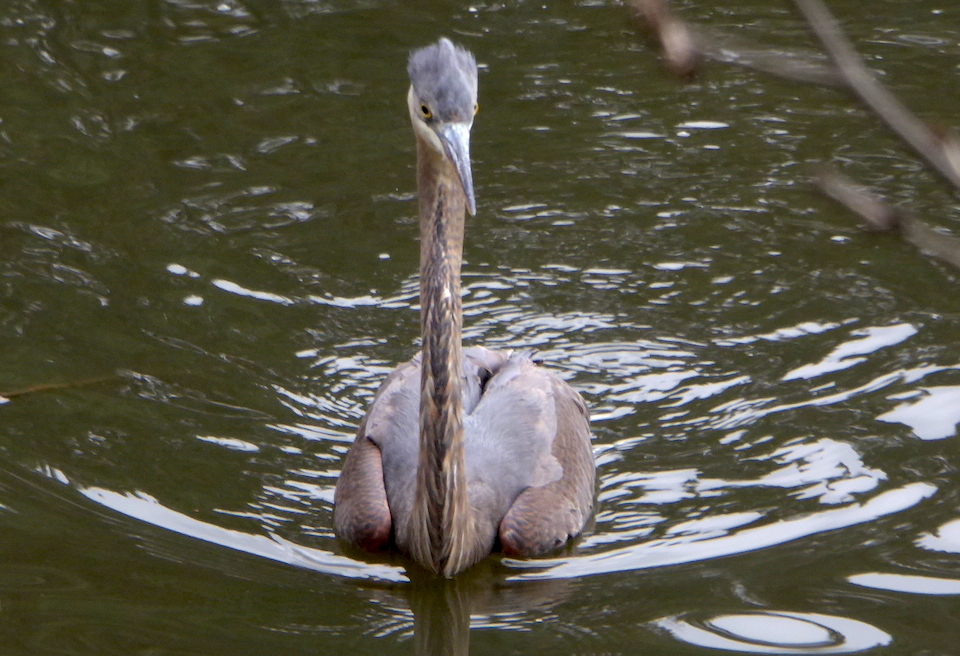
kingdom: Animalia
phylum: Chordata
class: Aves
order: Pelecaniformes
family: Ardeidae
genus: Ardea
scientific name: Ardea herodias
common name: Great blue heron
